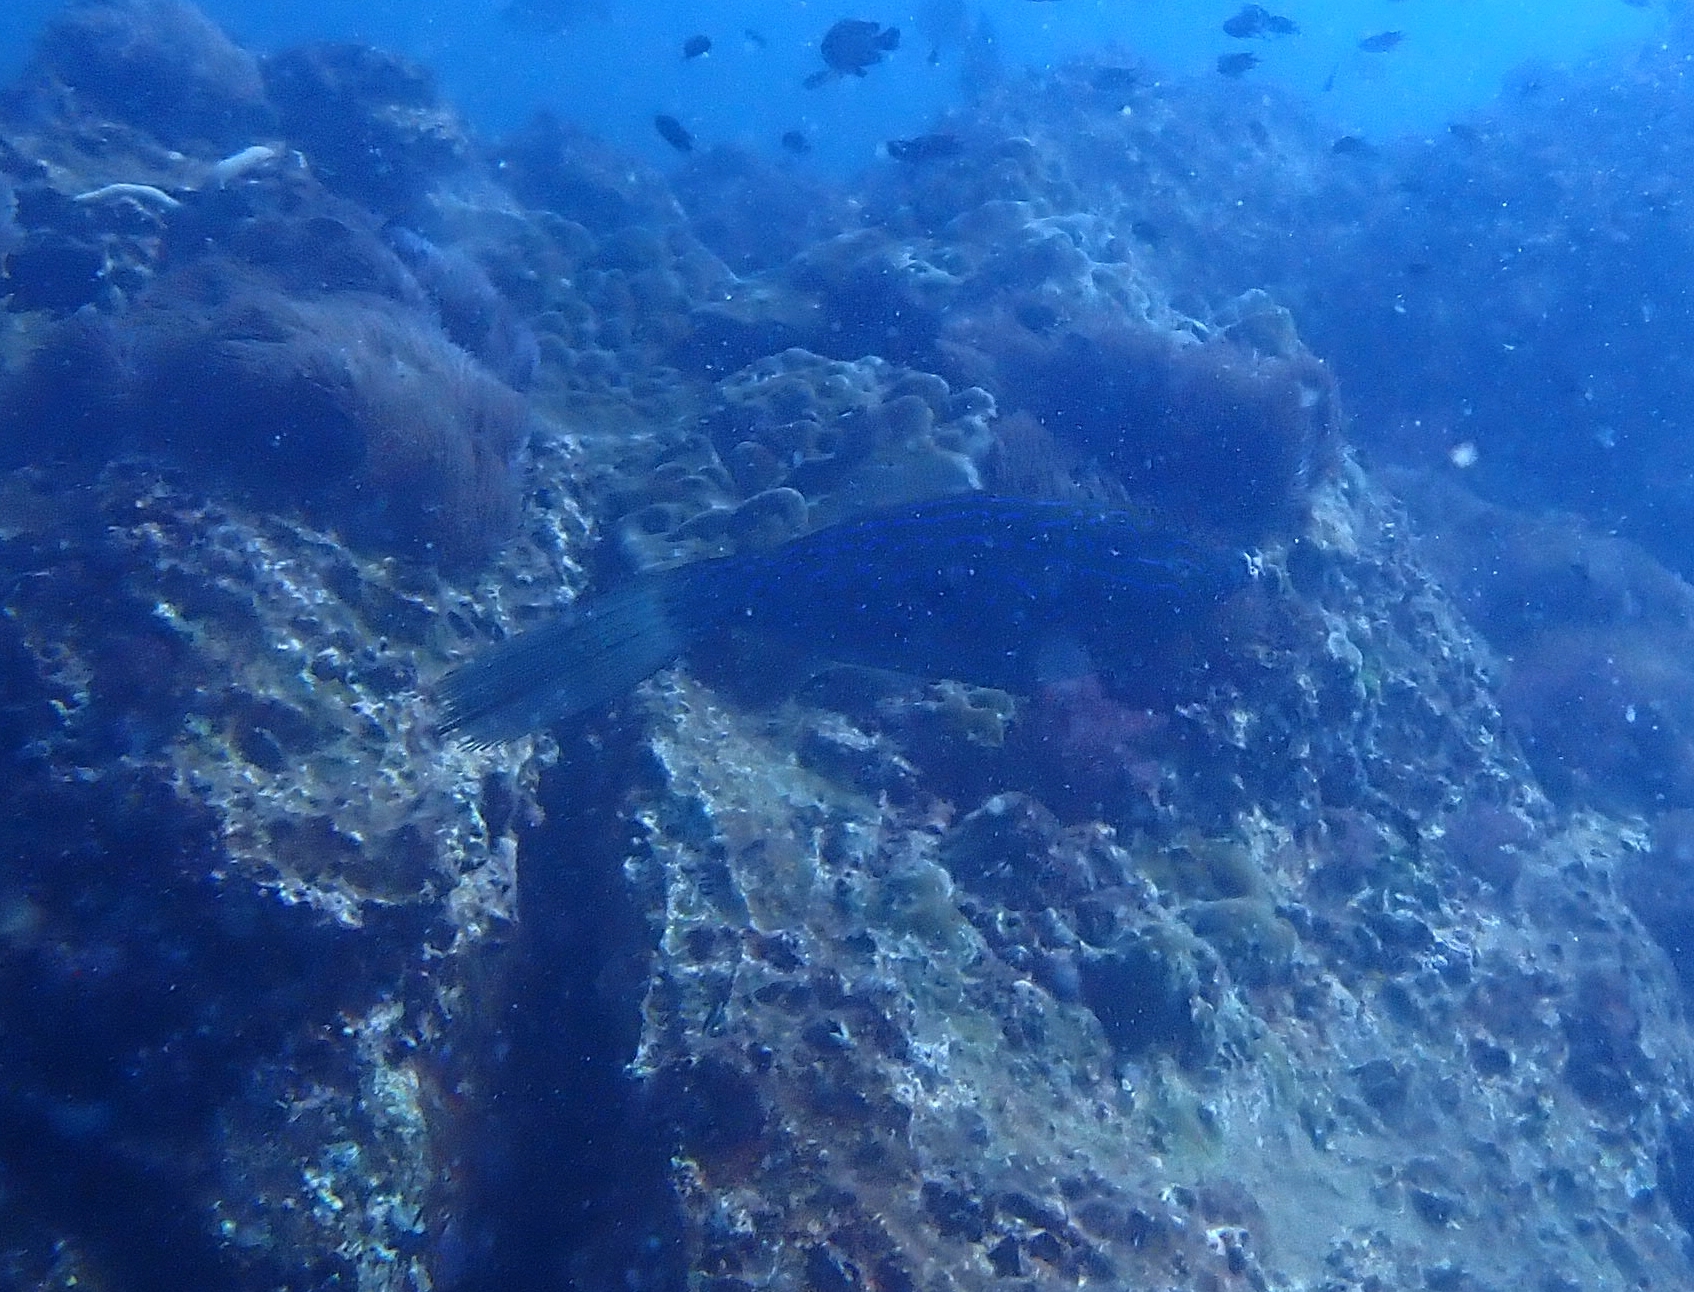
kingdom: Animalia
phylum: Chordata
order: Tetraodontiformes
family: Monacanthidae
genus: Aluterus
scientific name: Aluterus scriptus
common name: Scribbled leatherjacket filefish
